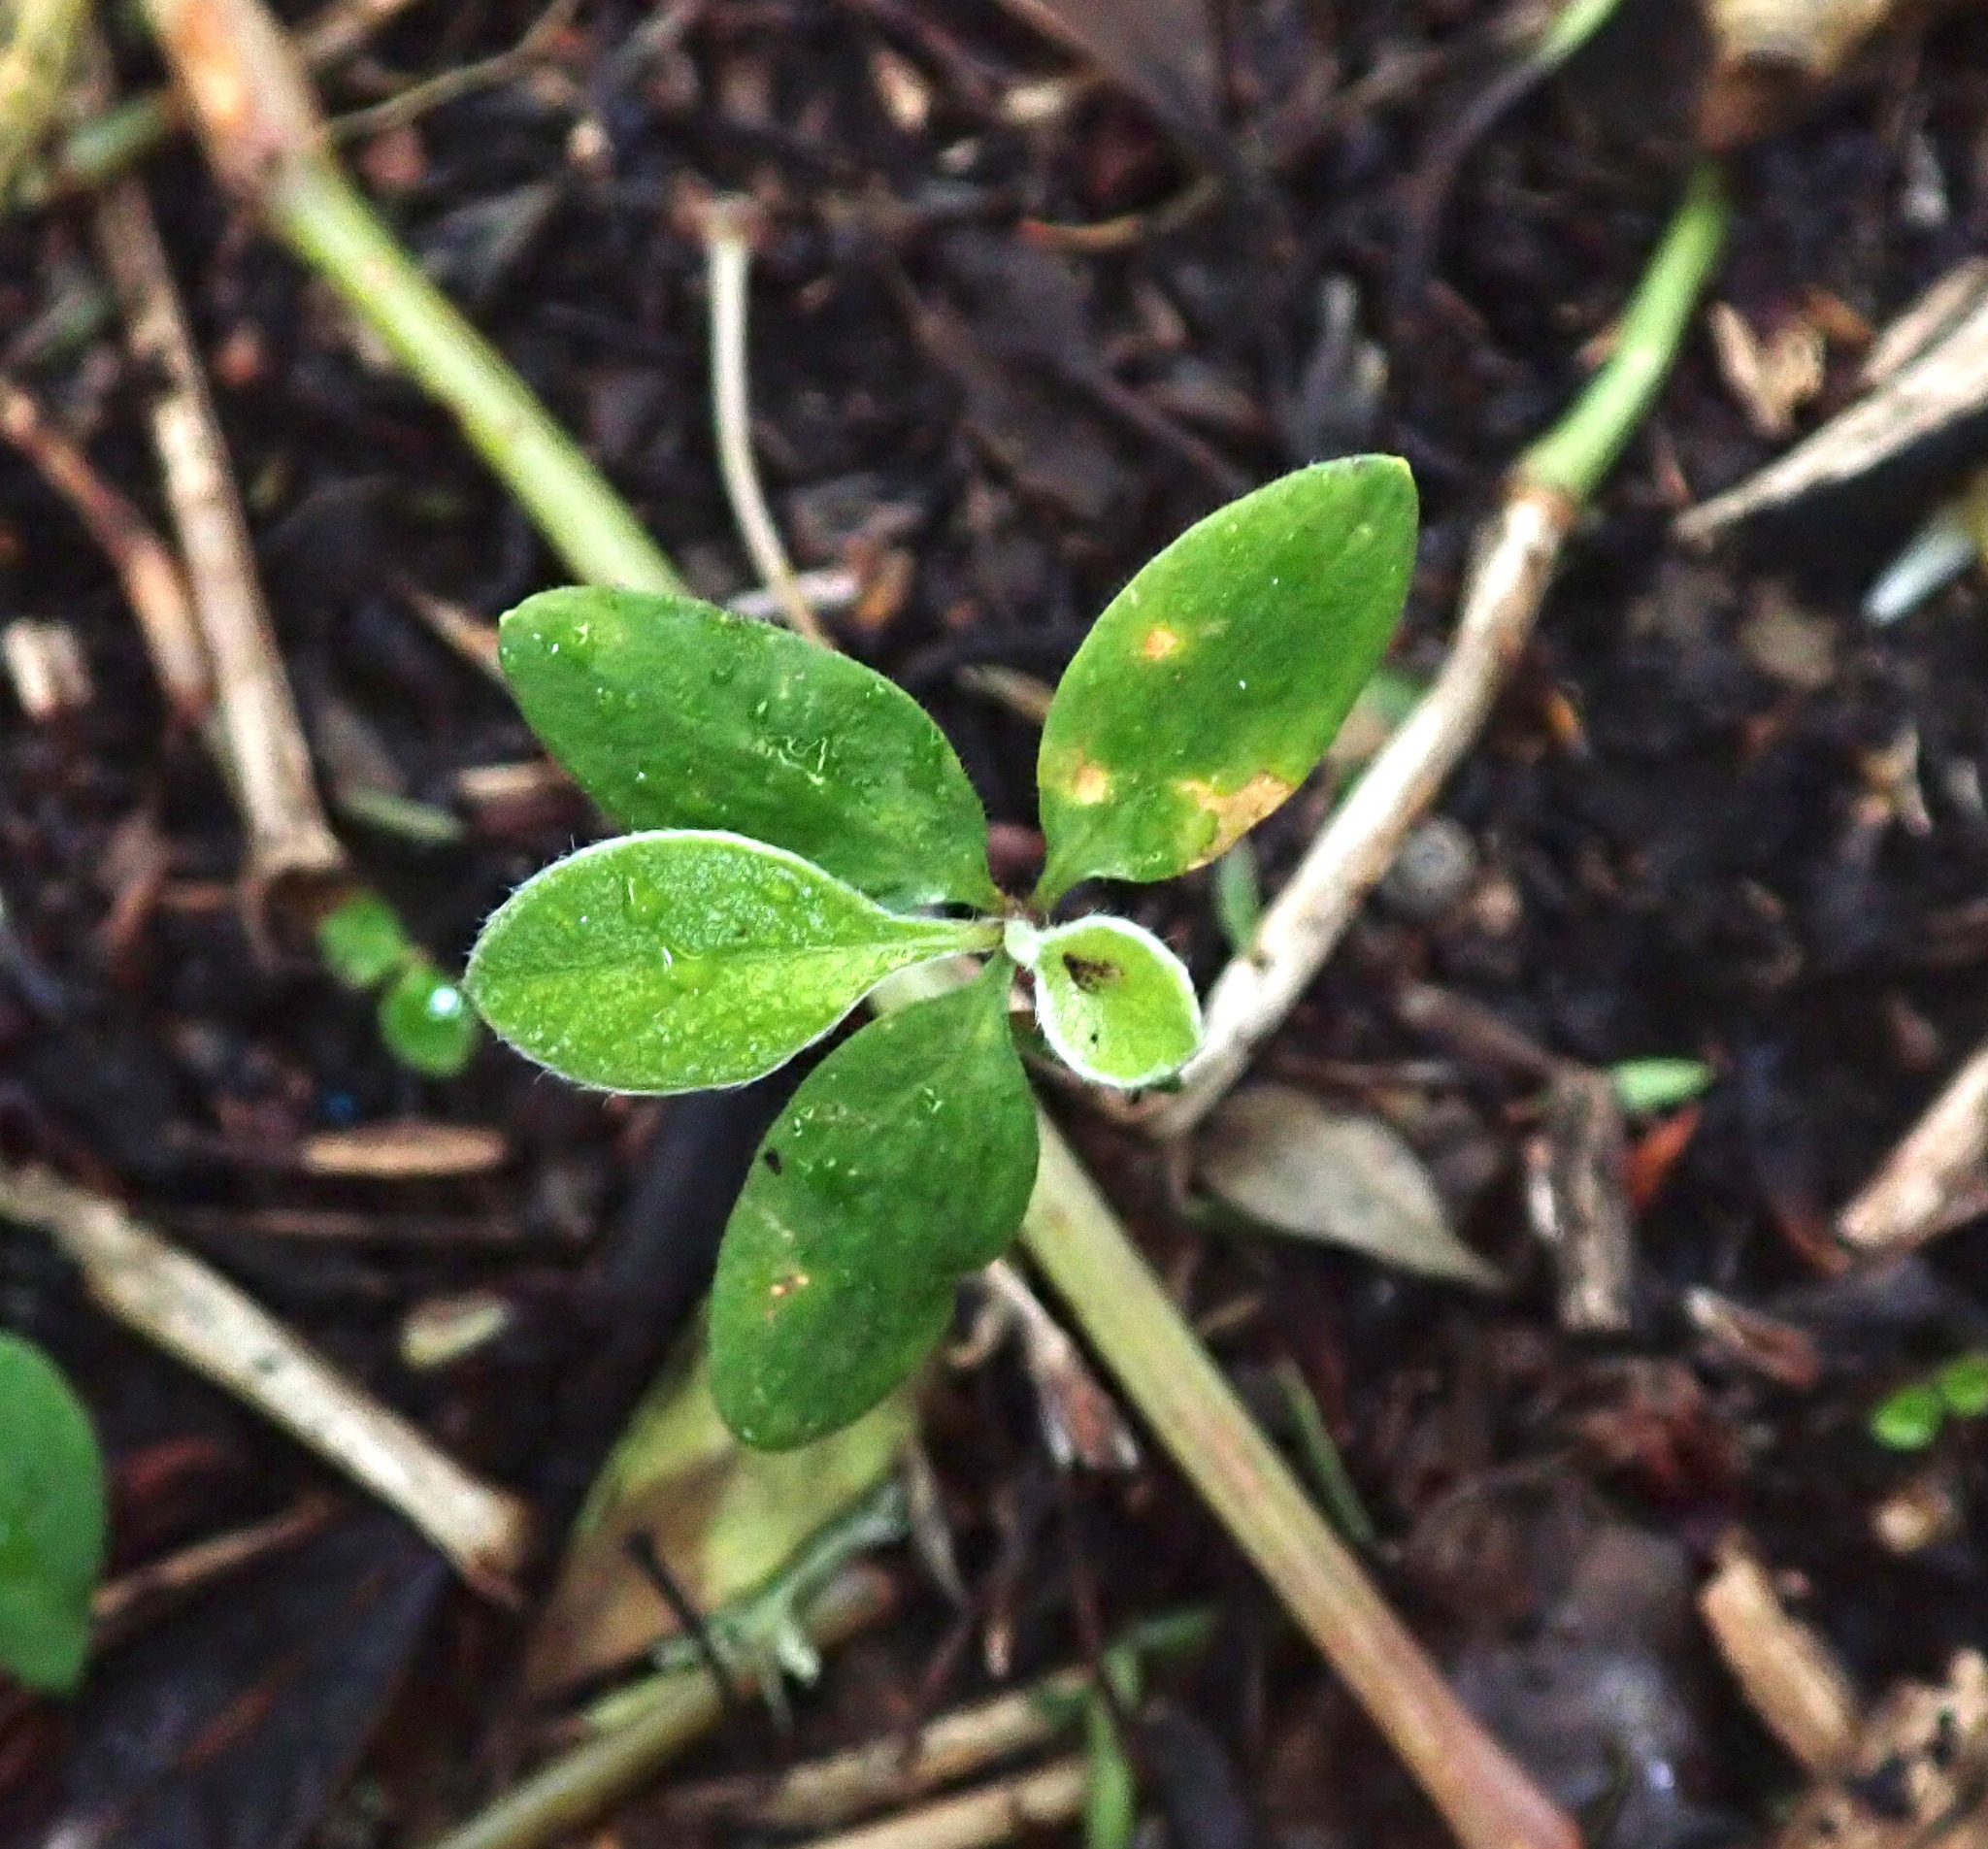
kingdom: Plantae
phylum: Tracheophyta
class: Magnoliopsida
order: Apiales
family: Pittosporaceae
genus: Pittosporum
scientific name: Pittosporum crassifolium
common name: Karo
